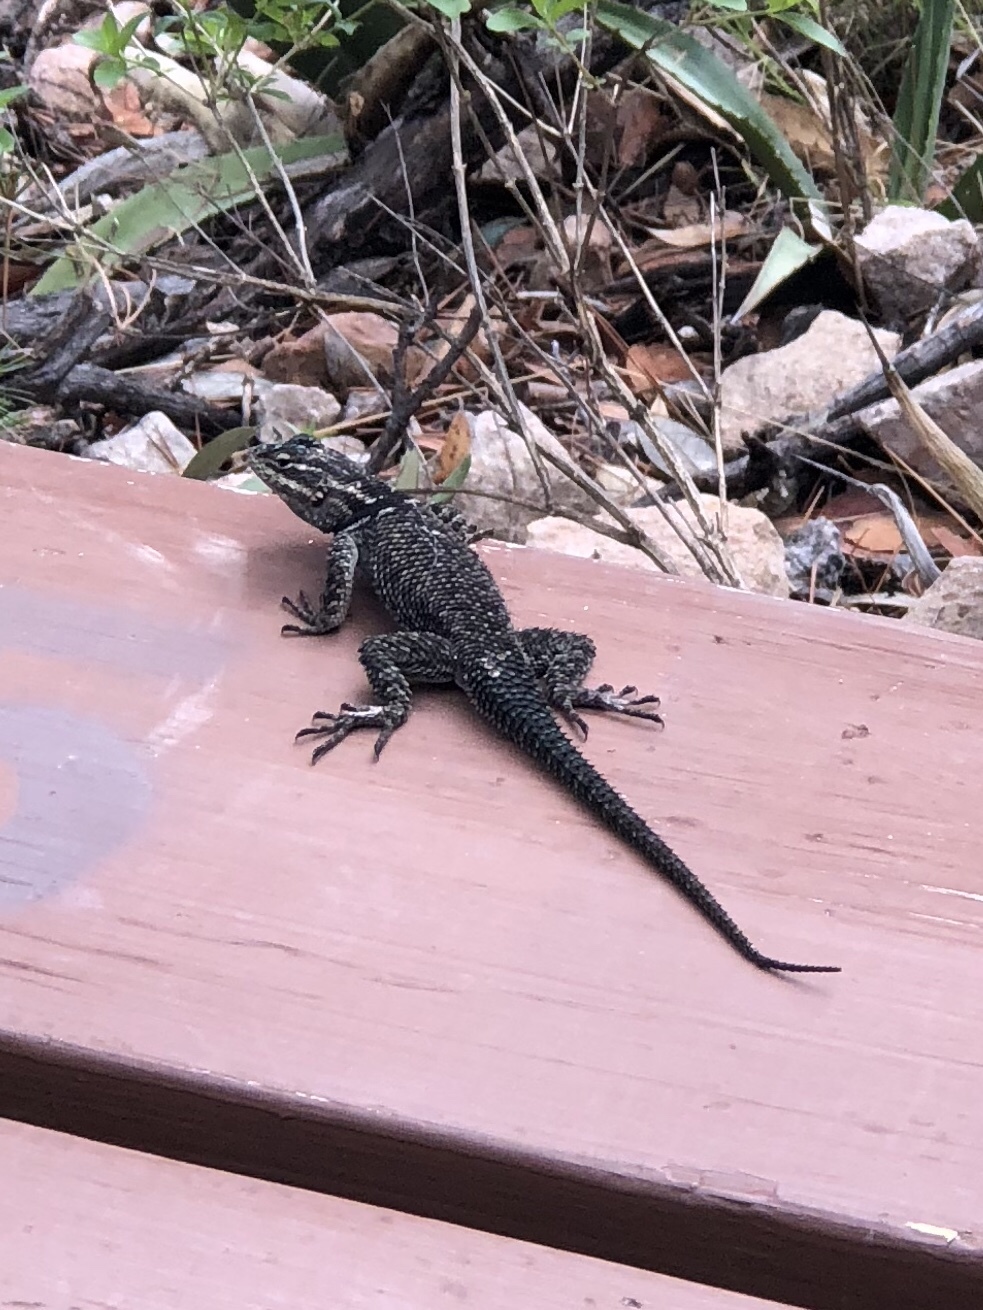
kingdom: Animalia
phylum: Chordata
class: Squamata
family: Phrynosomatidae
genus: Sceloporus
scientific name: Sceloporus jarrovii
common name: Yarrow's spiny lizard
